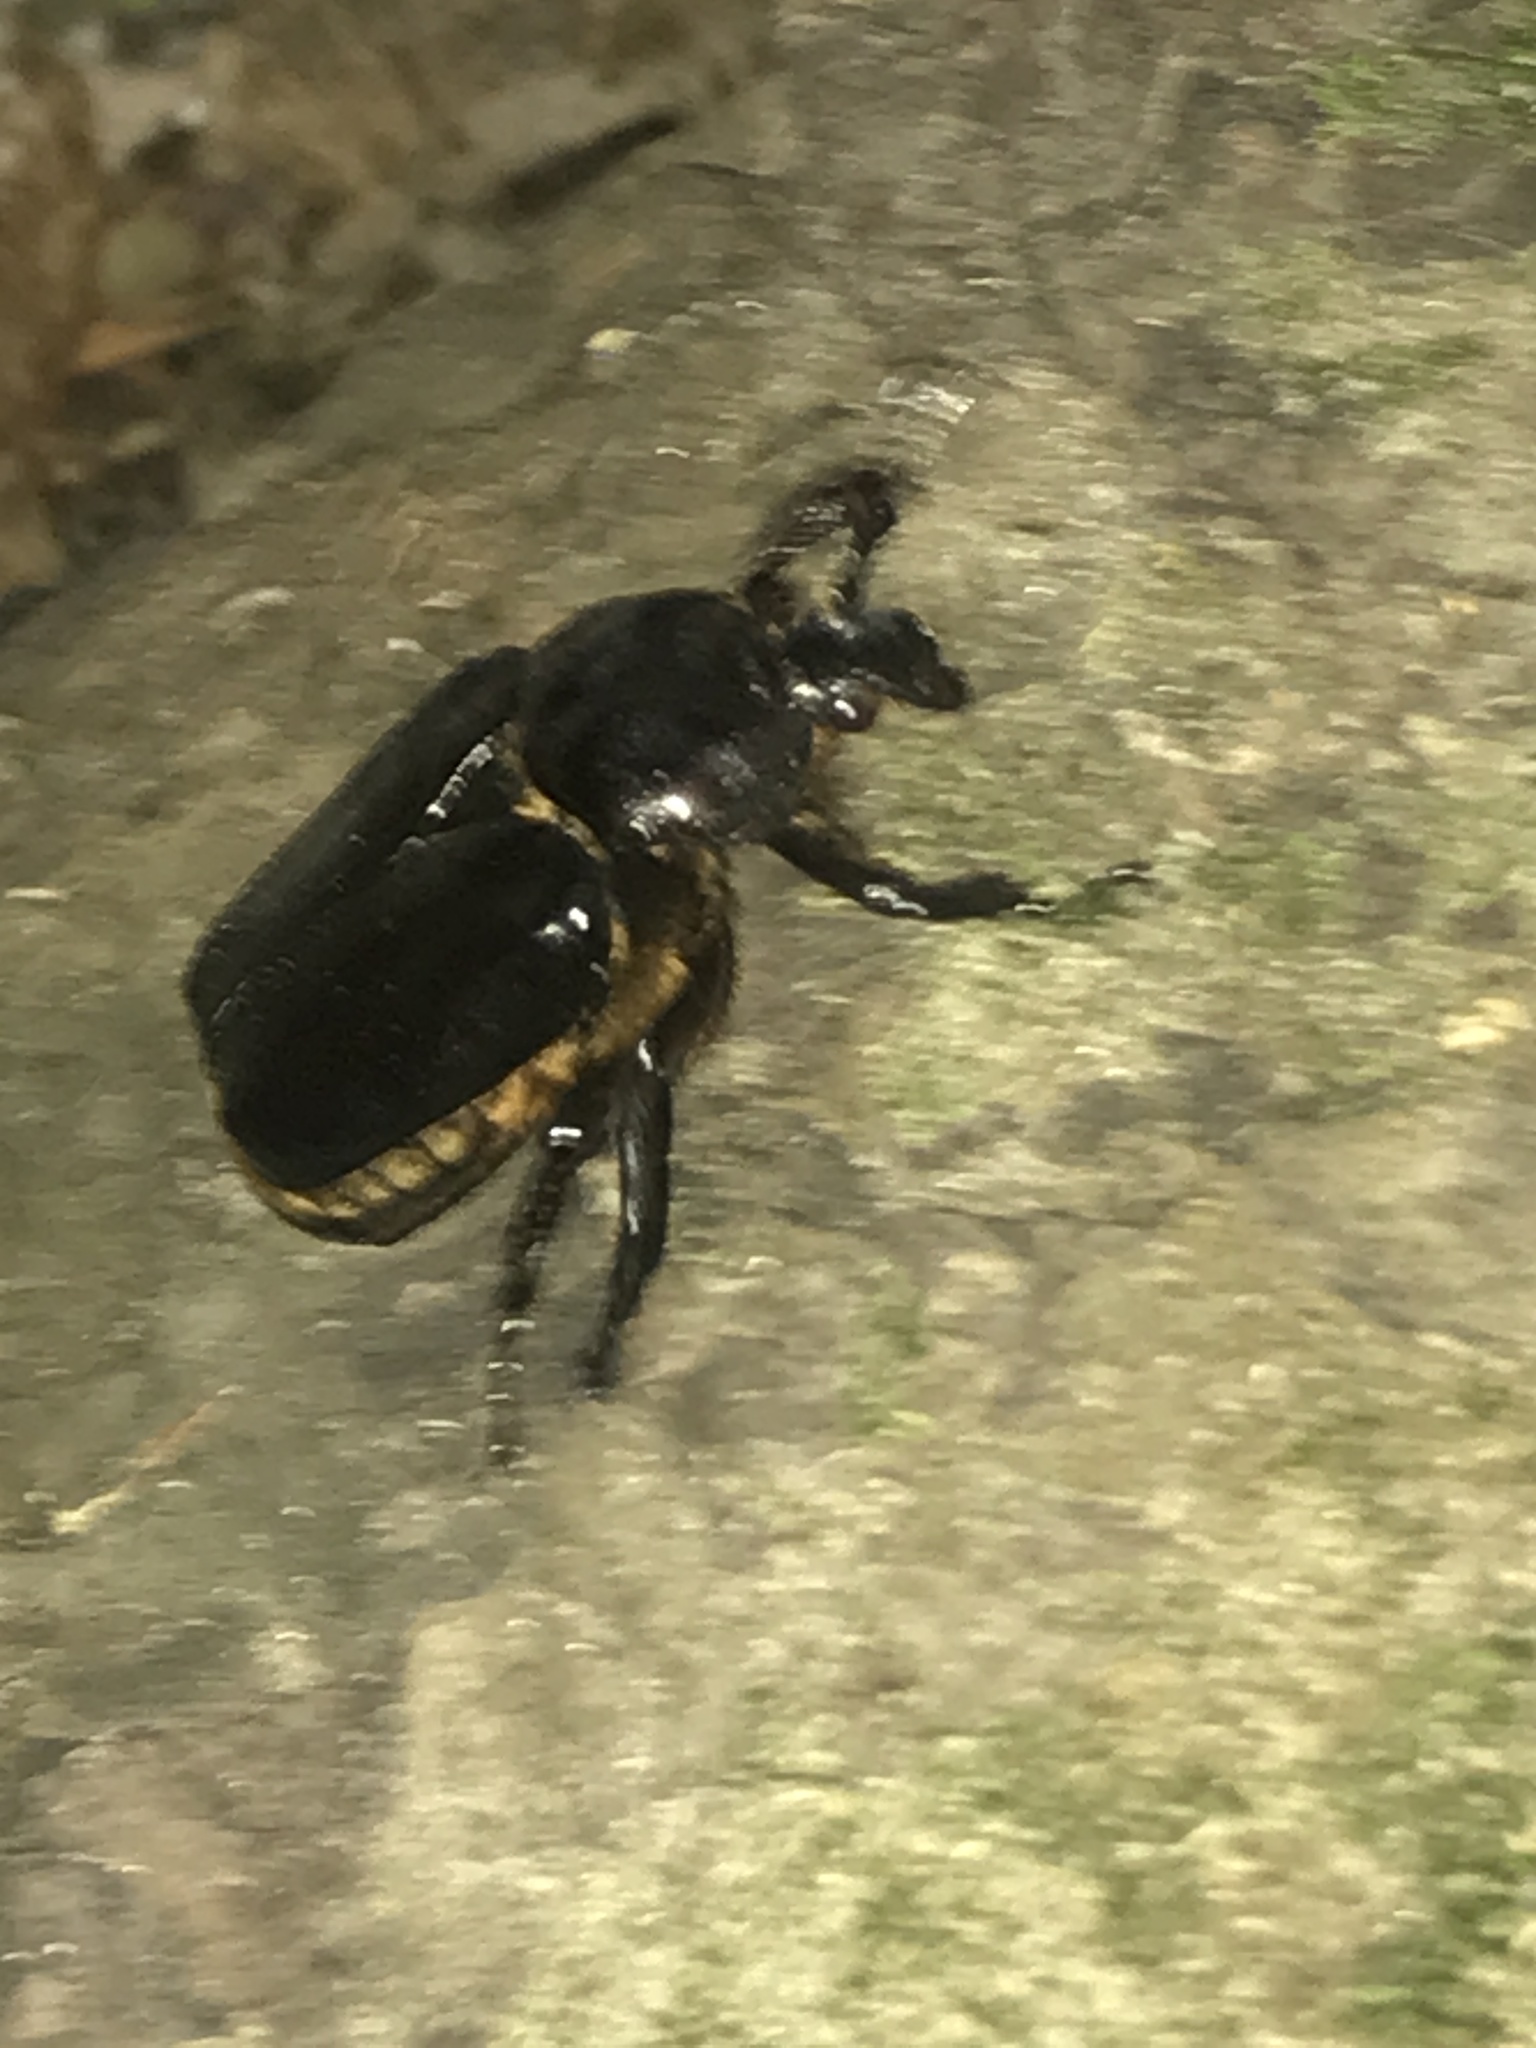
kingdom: Animalia
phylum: Arthropoda
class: Insecta
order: Coleoptera
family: Scarabaeidae
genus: Osmoderma
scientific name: Osmoderma eremicola
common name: Hermit flower beetle
